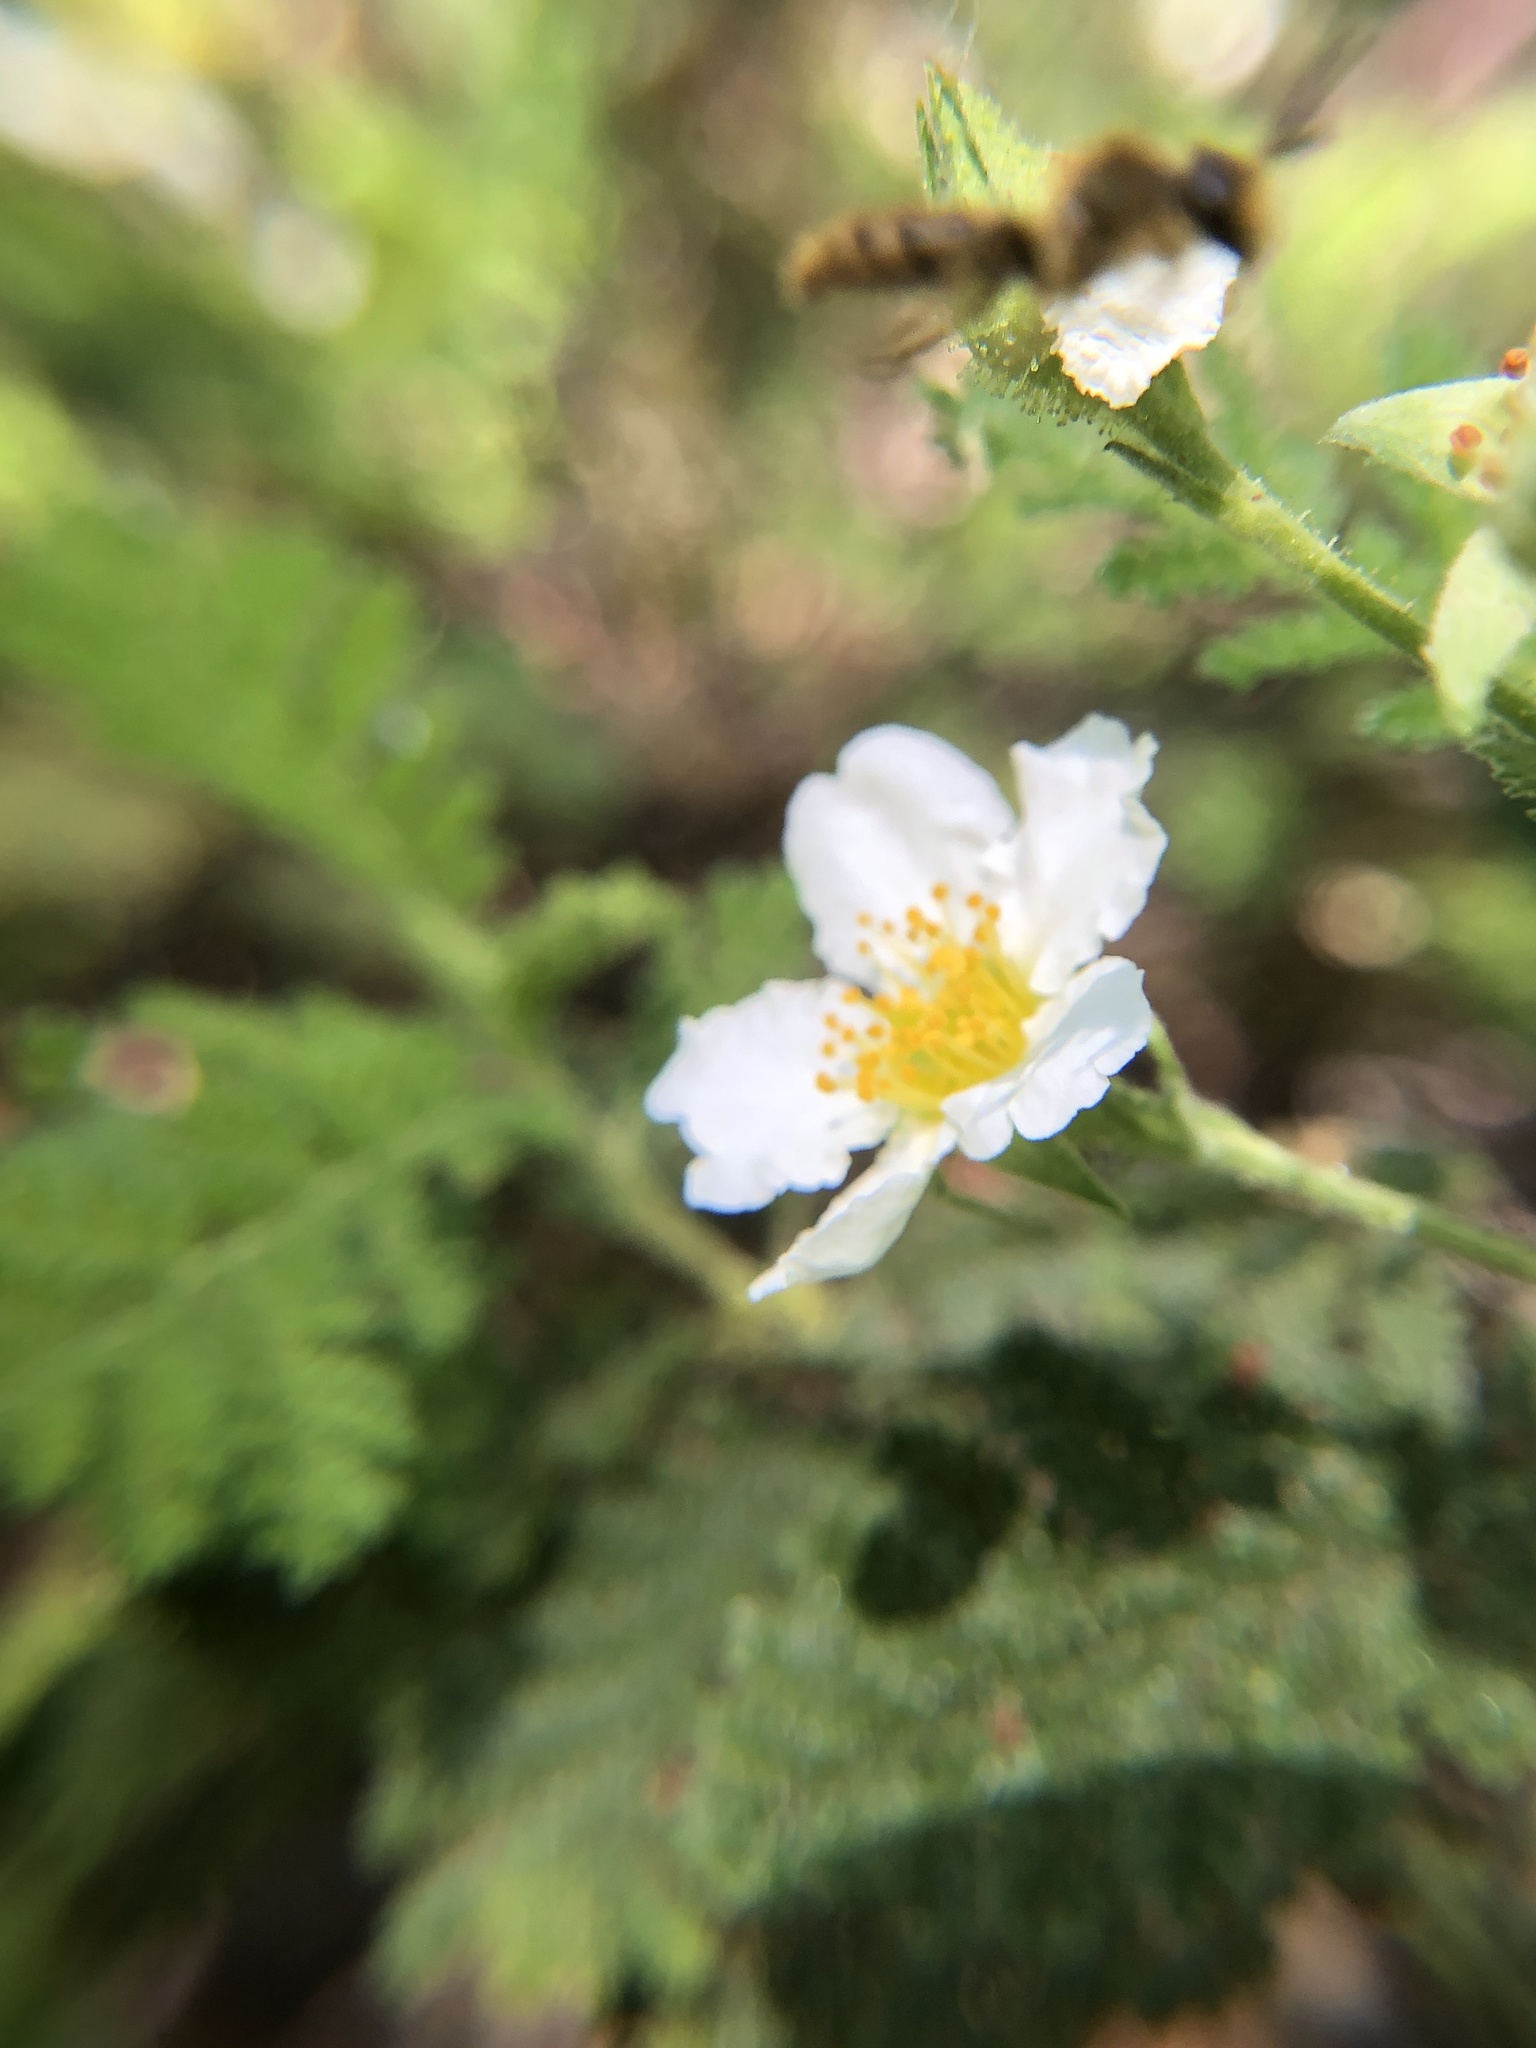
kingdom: Plantae
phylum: Tracheophyta
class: Magnoliopsida
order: Rosales
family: Rosaceae
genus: Chamaebatia
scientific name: Chamaebatia foliolosa
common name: Mountain misery
